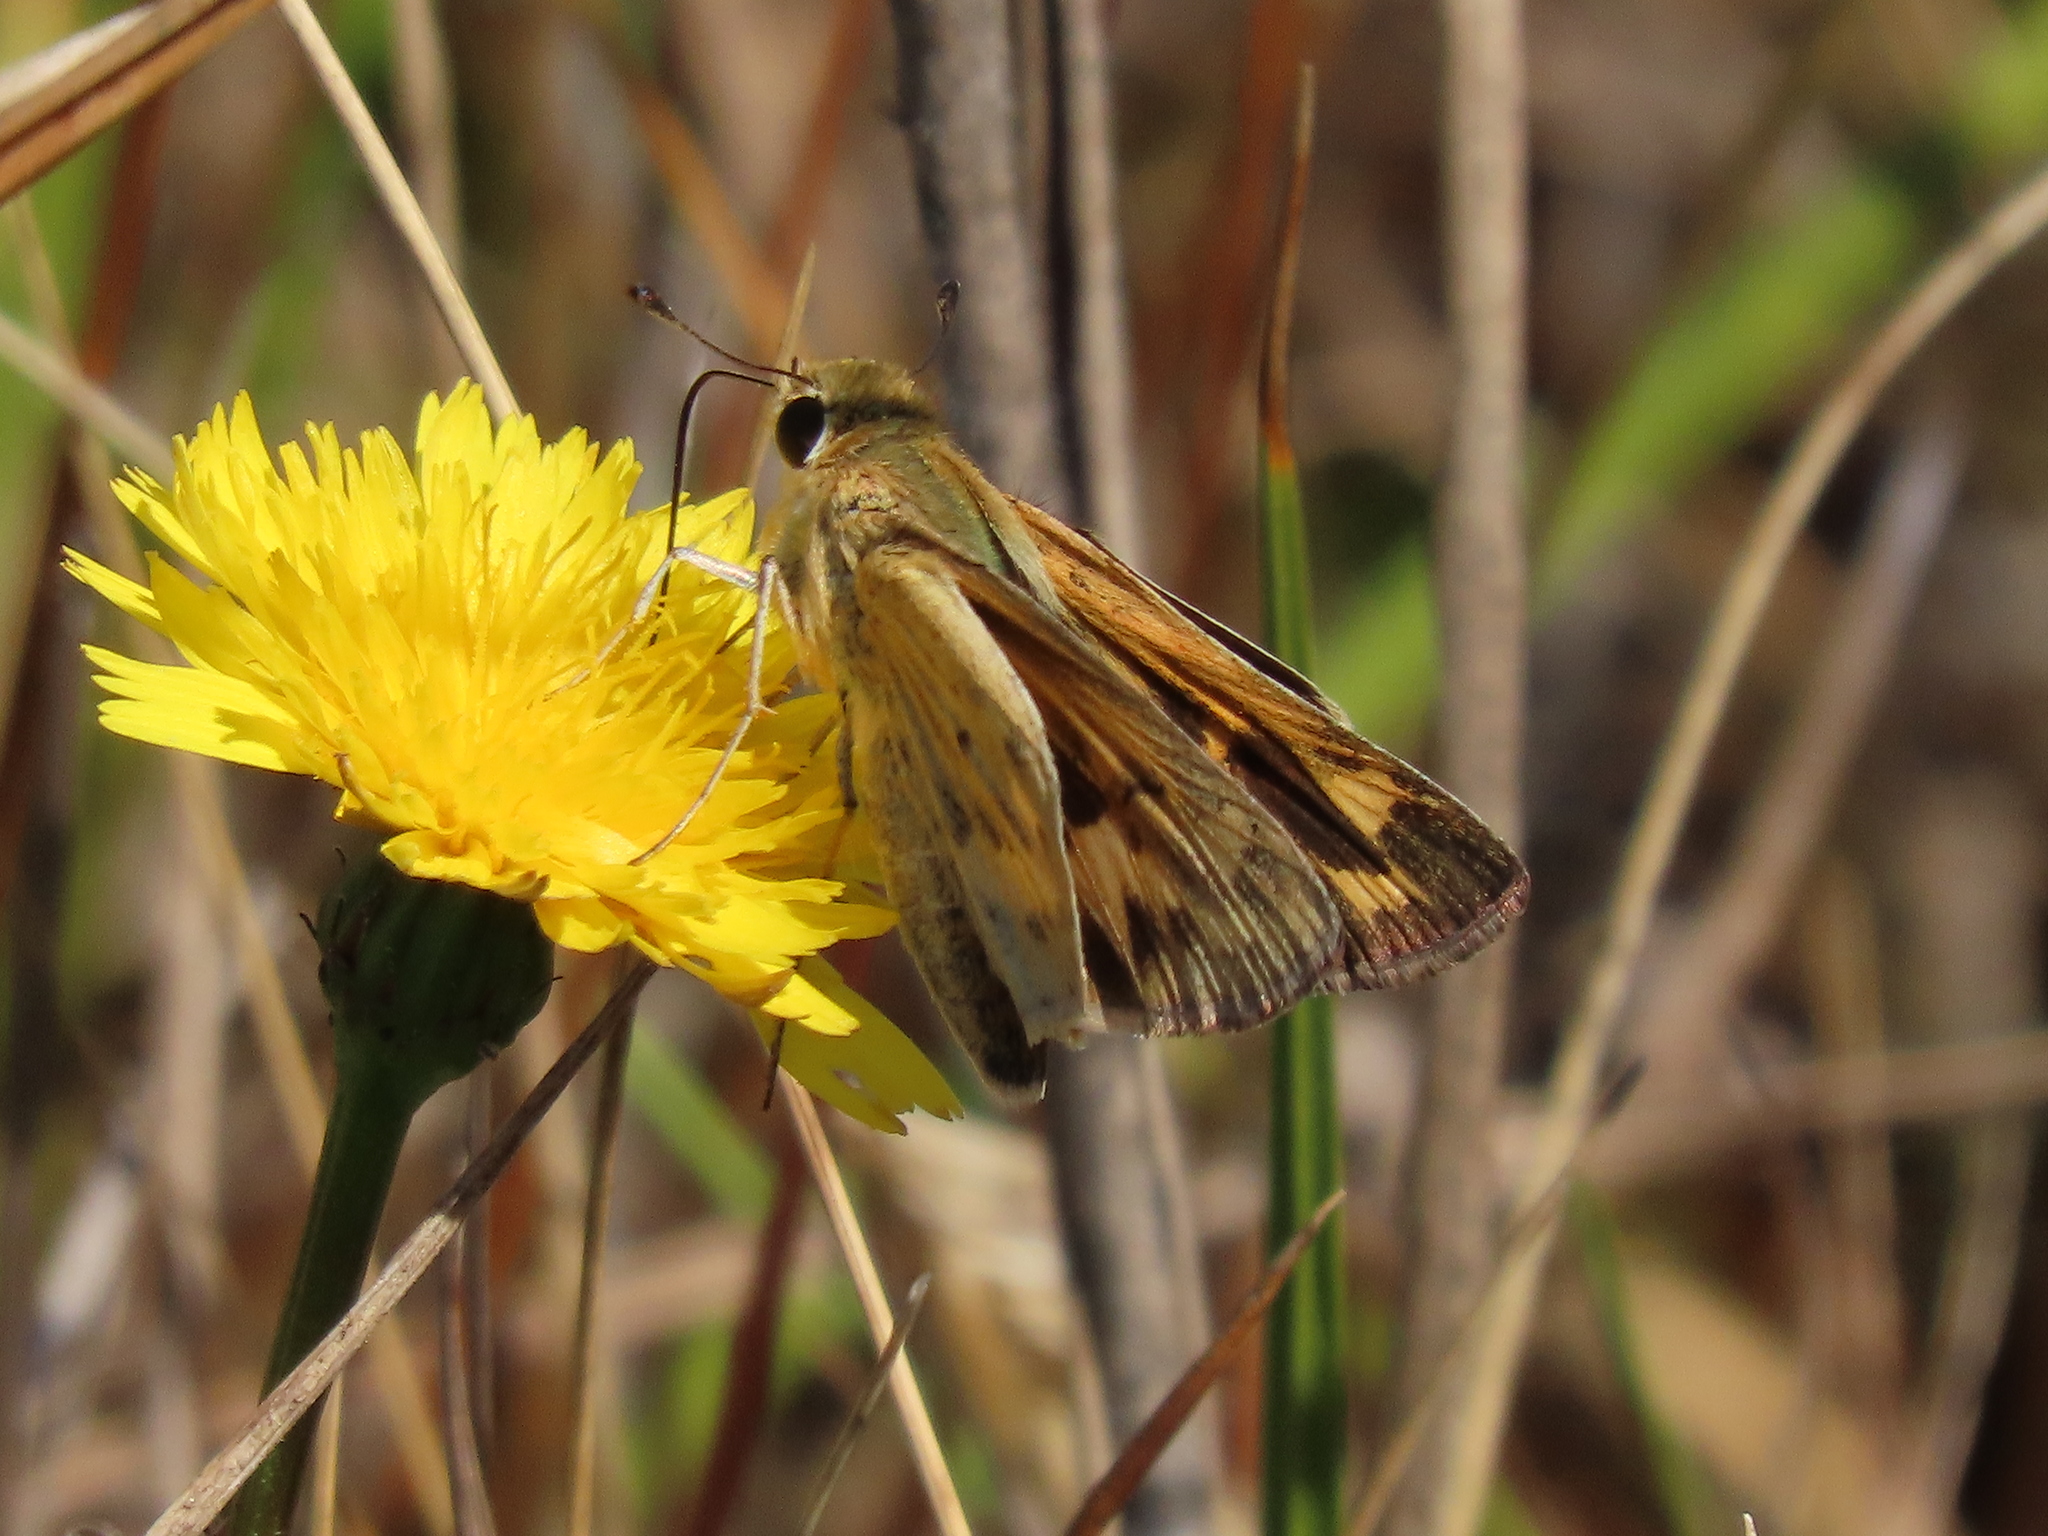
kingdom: Animalia
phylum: Arthropoda
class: Insecta
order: Lepidoptera
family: Hesperiidae
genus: Hylephila
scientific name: Hylephila phyleus
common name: Fiery skipper
